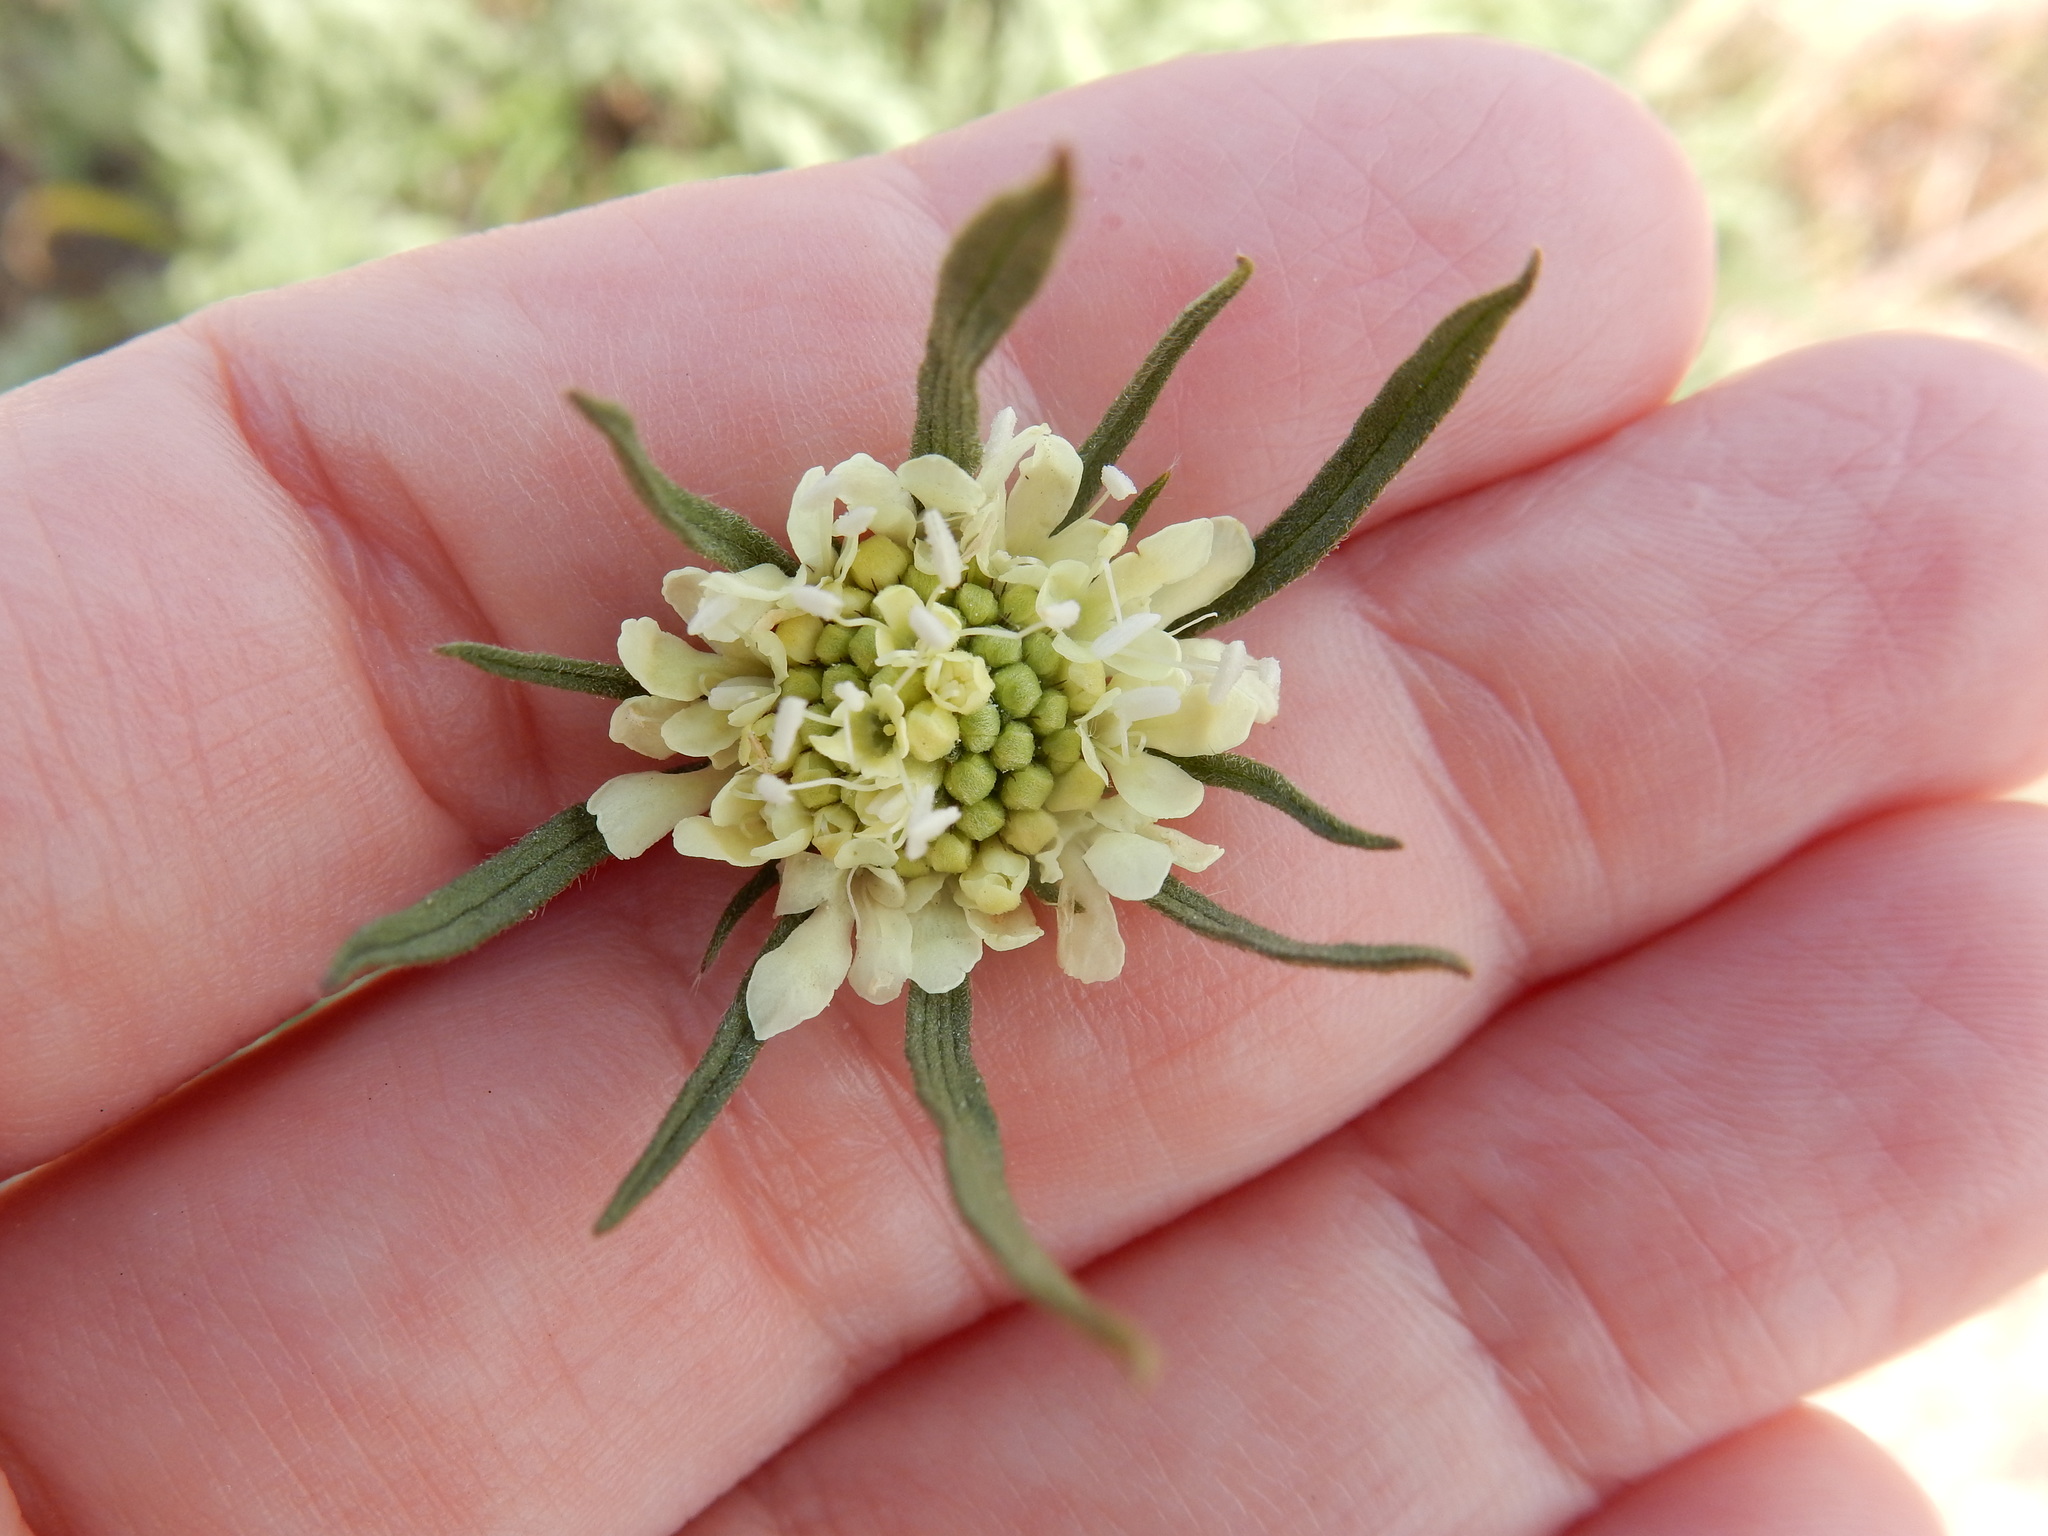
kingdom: Plantae
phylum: Tracheophyta
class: Magnoliopsida
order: Dipsacales
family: Caprifoliaceae
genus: Scabiosa
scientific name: Scabiosa ochroleuca
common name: Cream pincushions
